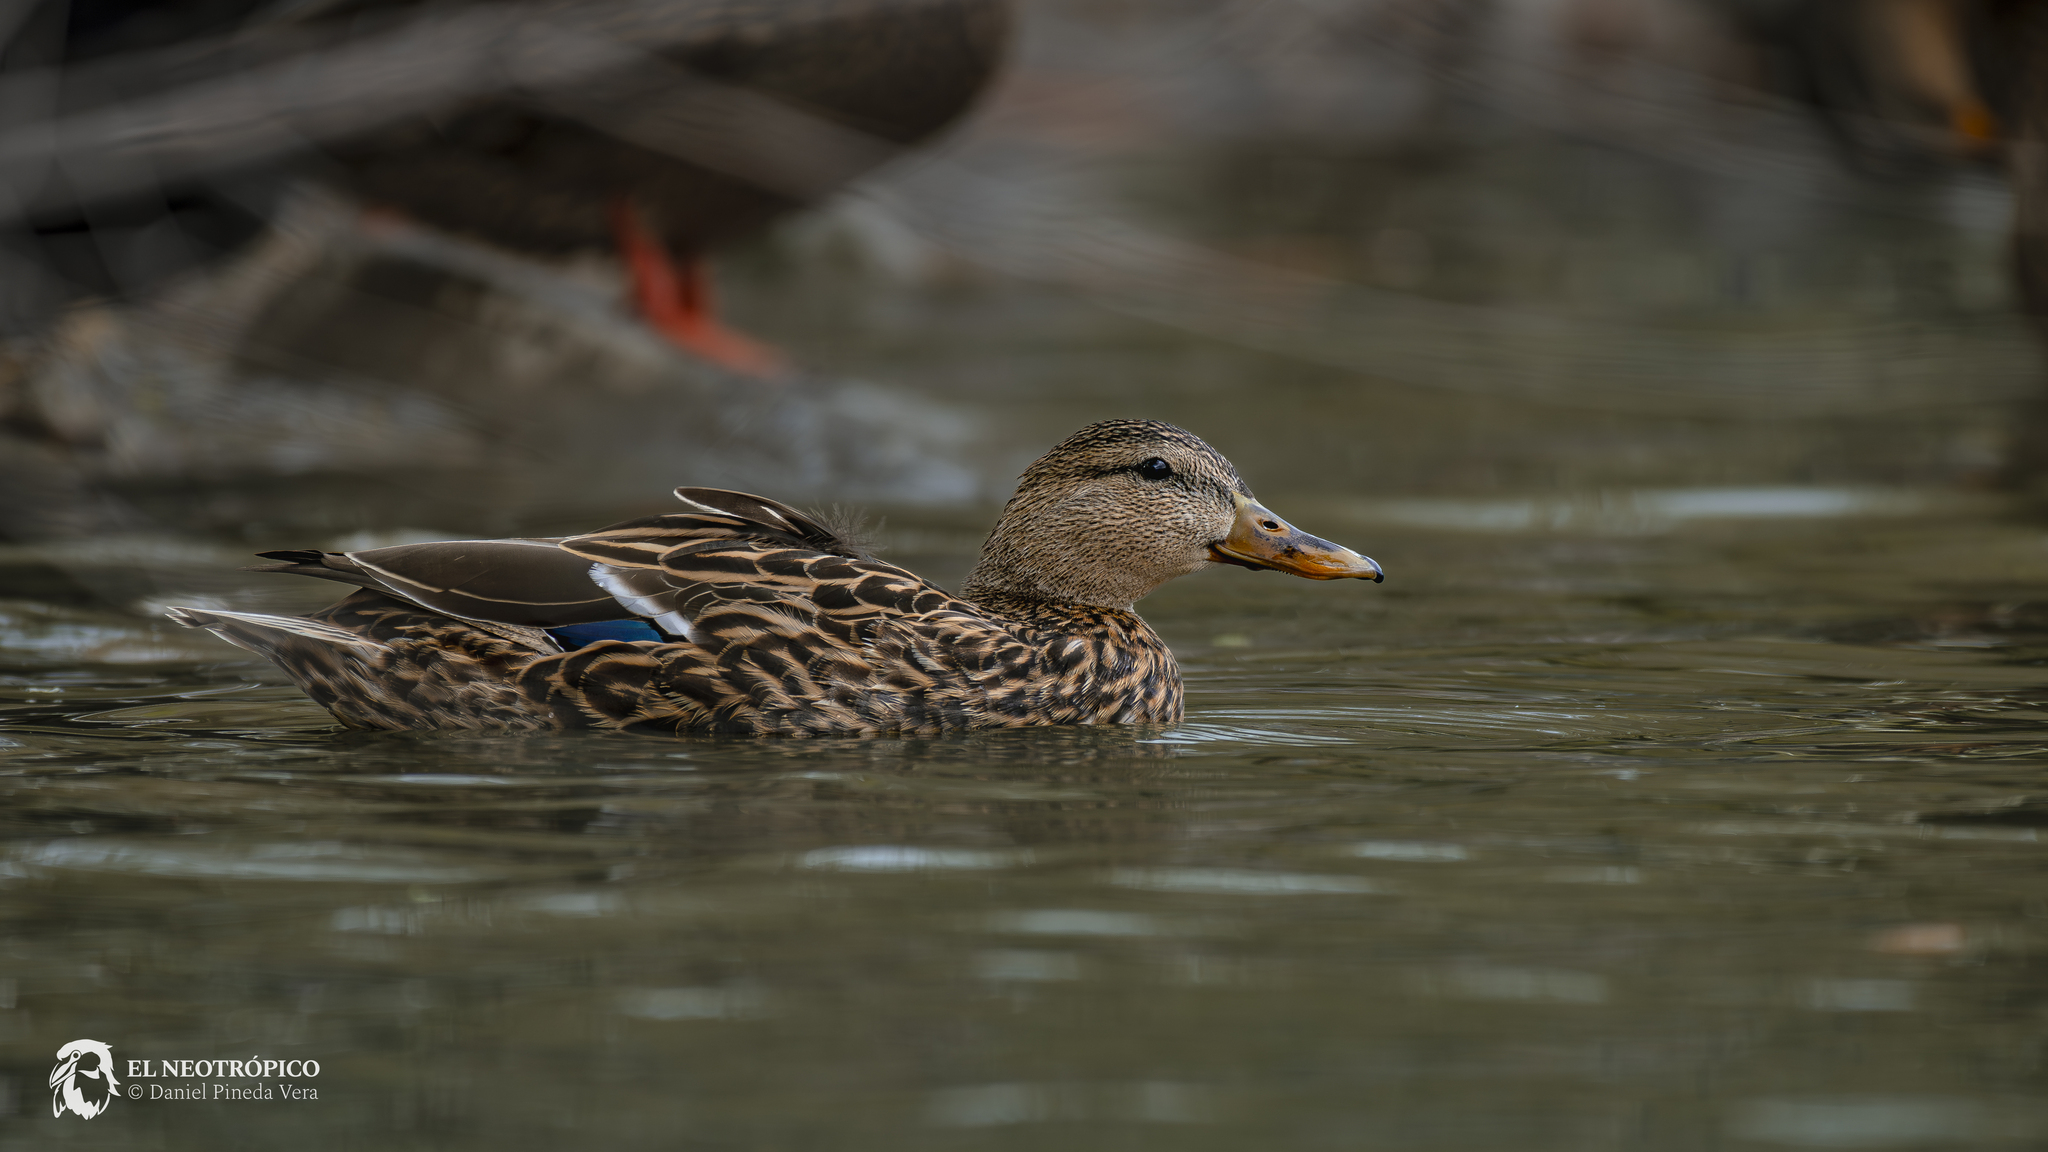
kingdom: Animalia
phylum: Chordata
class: Aves
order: Anseriformes
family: Anatidae
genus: Anas
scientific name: Anas platyrhynchos
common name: Mallard
